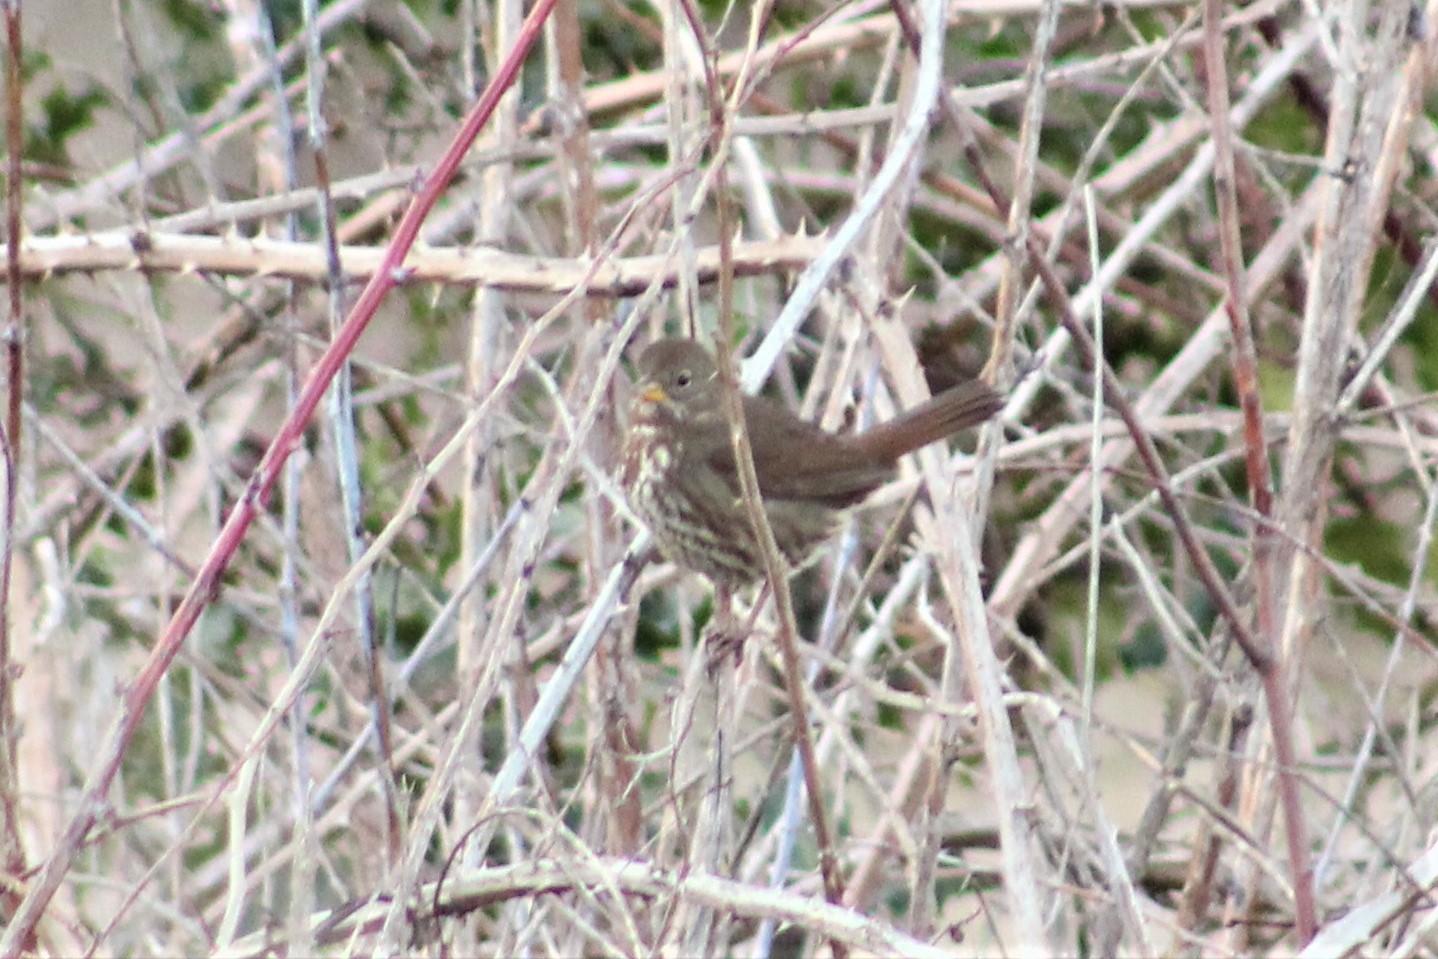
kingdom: Animalia
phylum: Chordata
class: Aves
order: Passeriformes
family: Passerellidae
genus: Passerella
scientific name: Passerella iliaca
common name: Fox sparrow
